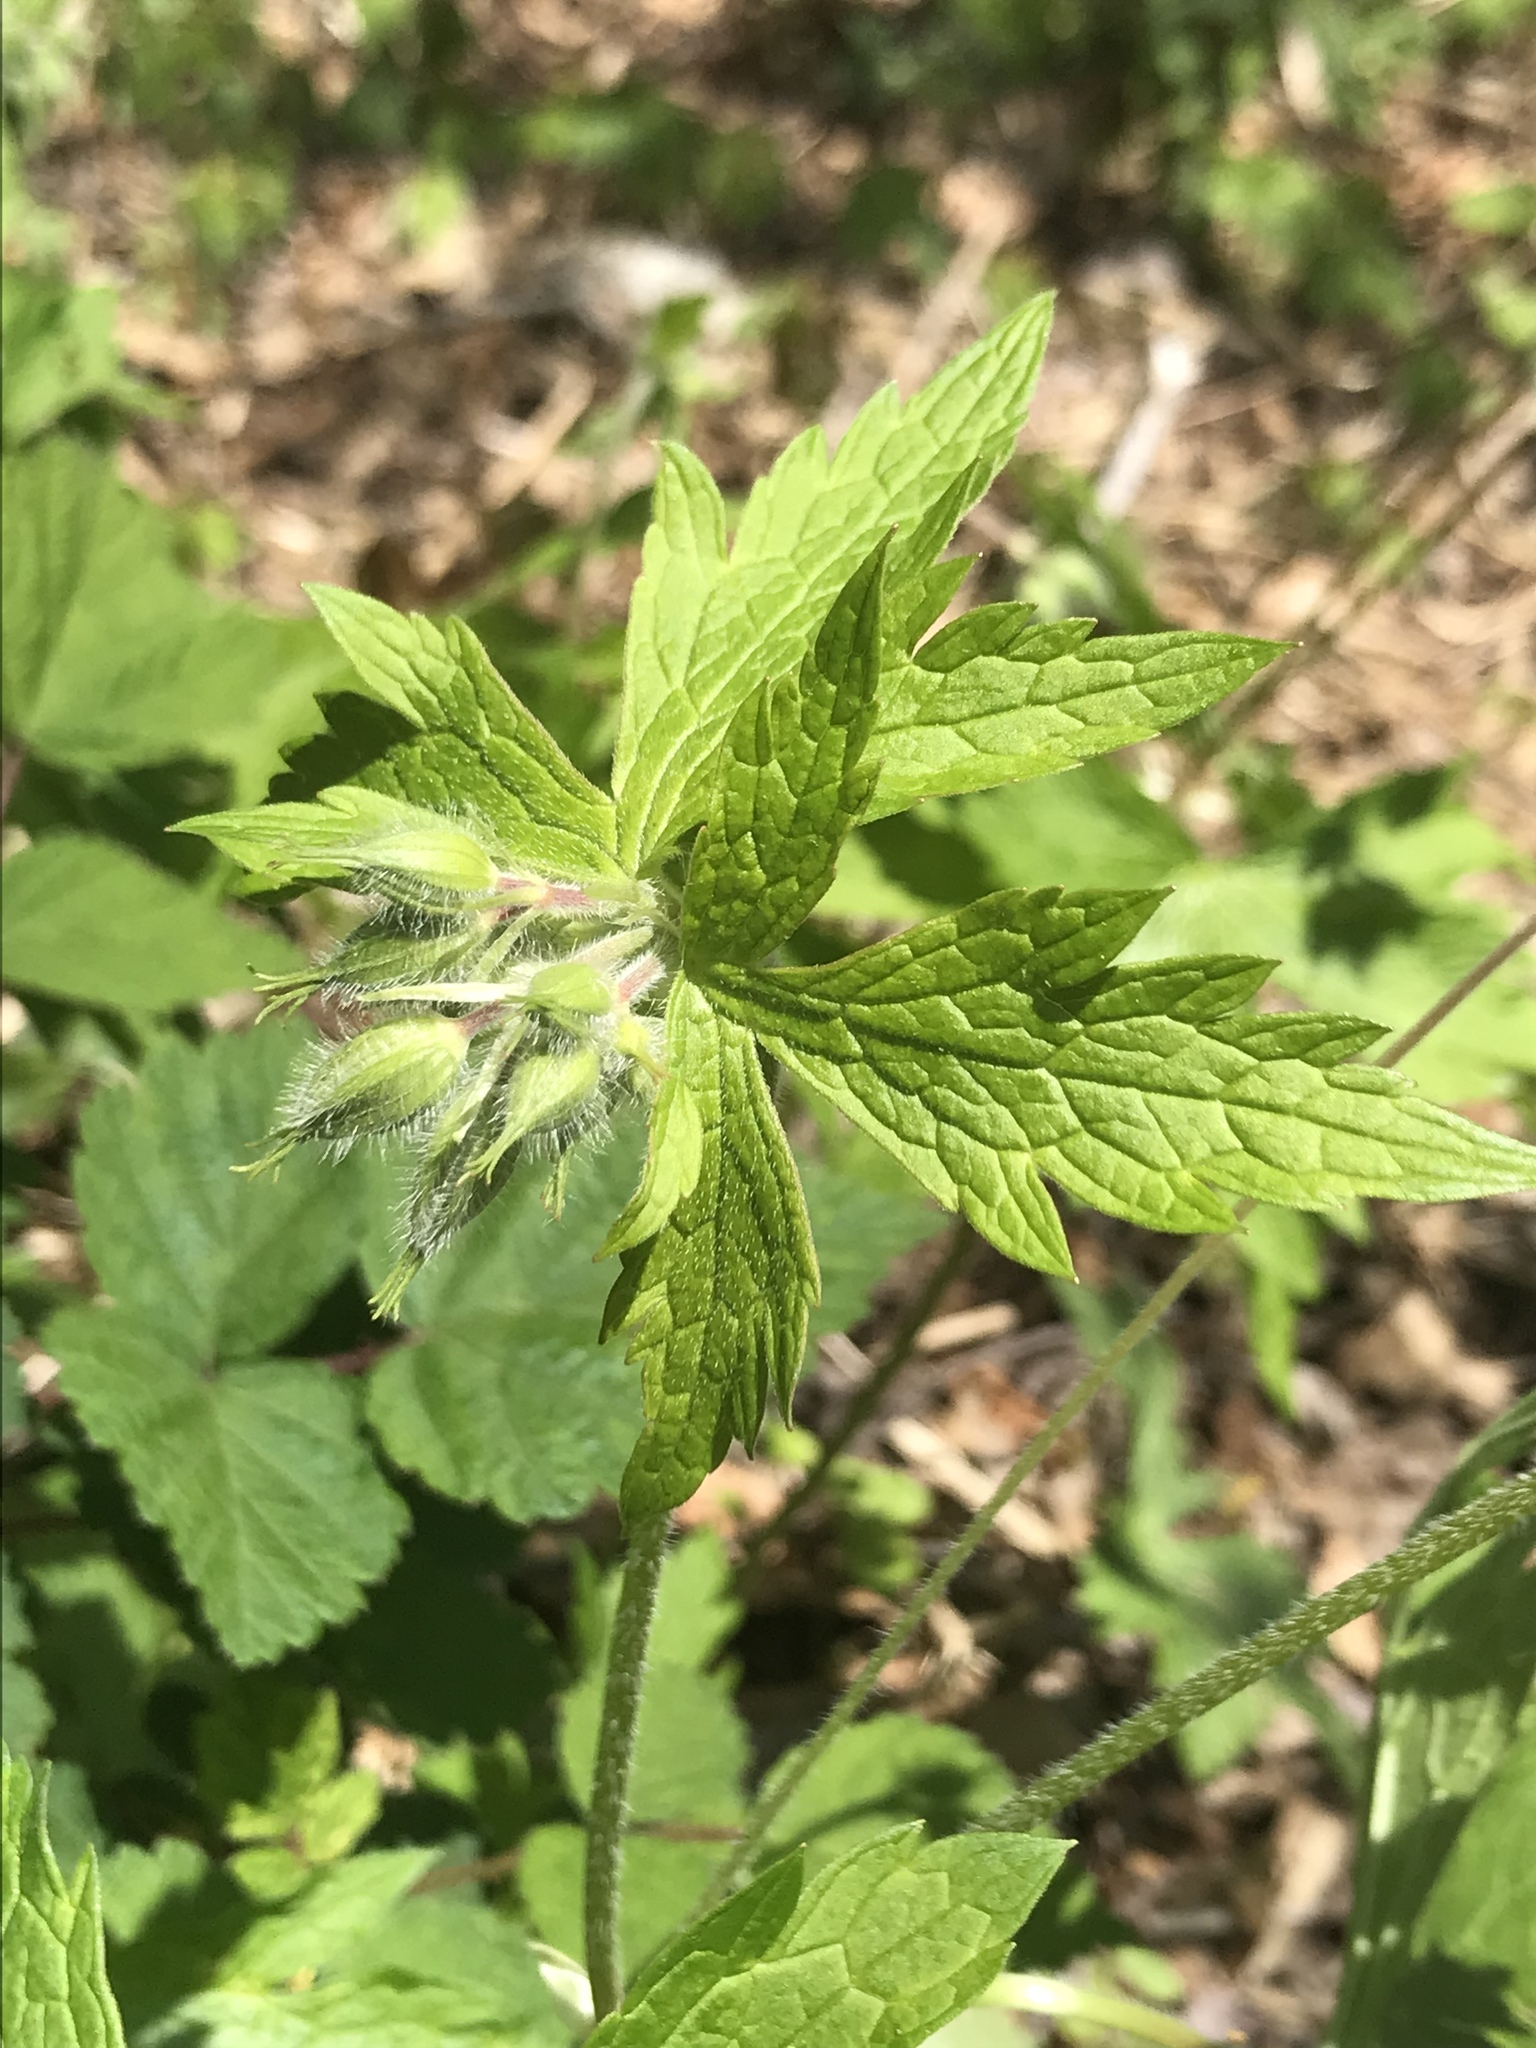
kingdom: Plantae
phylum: Tracheophyta
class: Magnoliopsida
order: Geraniales
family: Geraniaceae
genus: Geranium
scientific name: Geranium maculatum
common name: Spotted geranium
